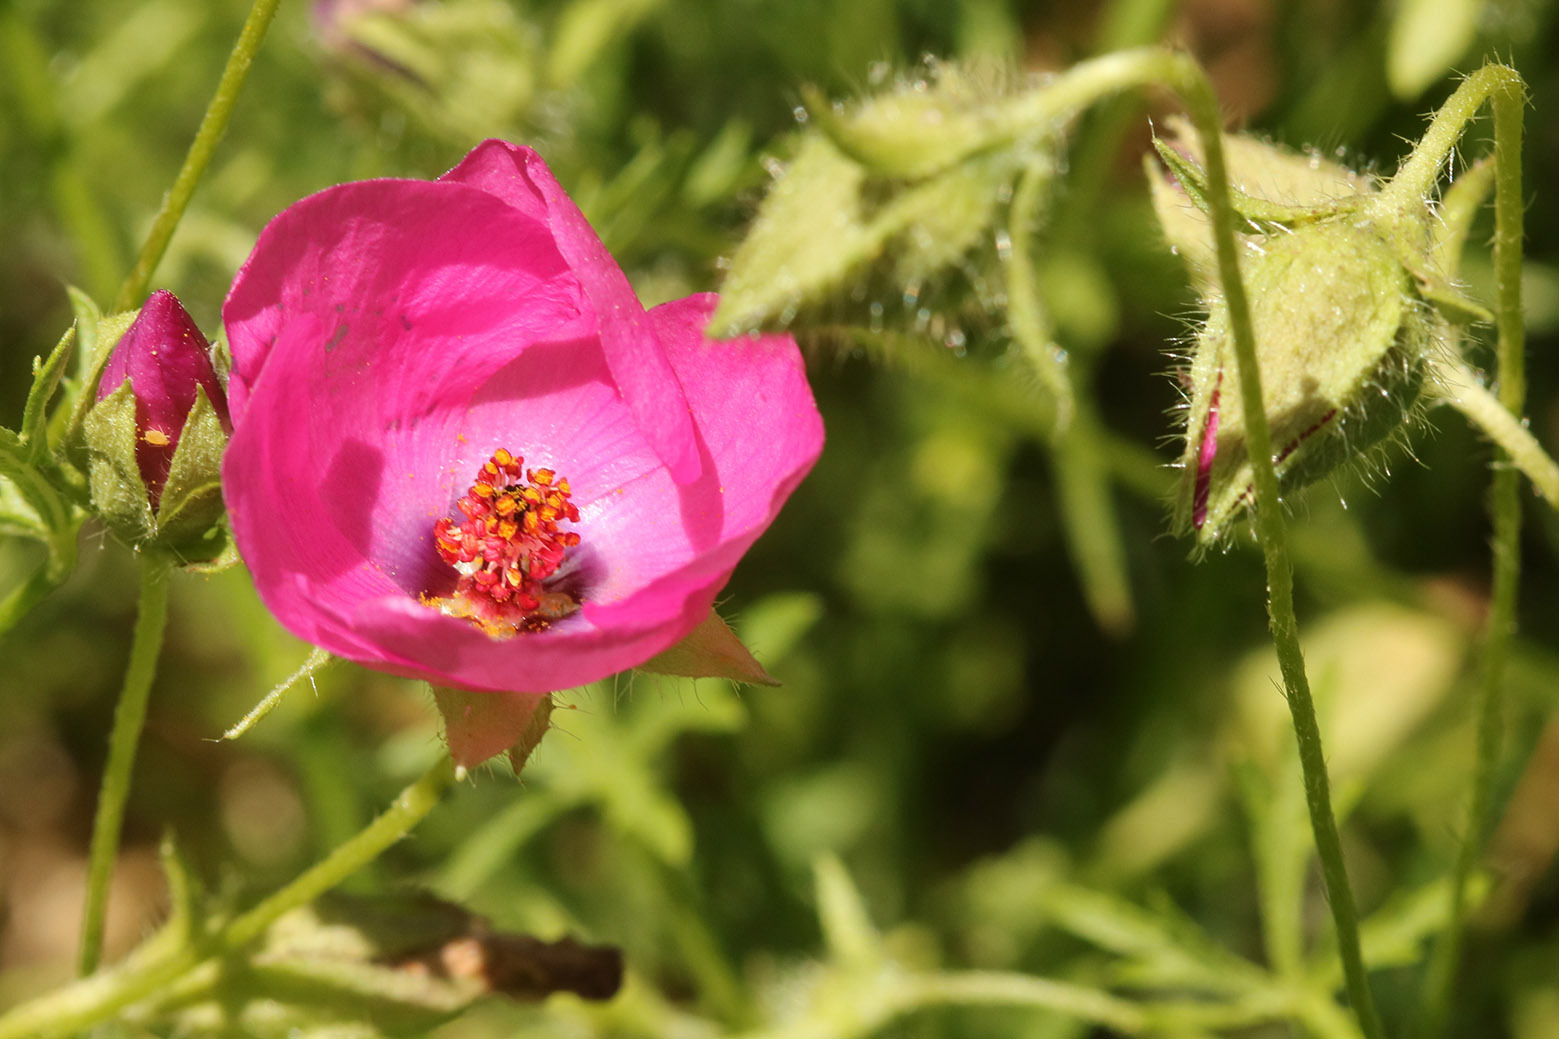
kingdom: Plantae
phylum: Tracheophyta
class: Magnoliopsida
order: Malvales
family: Malvaceae
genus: Modiolastrum
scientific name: Modiolastrum gilliesii
